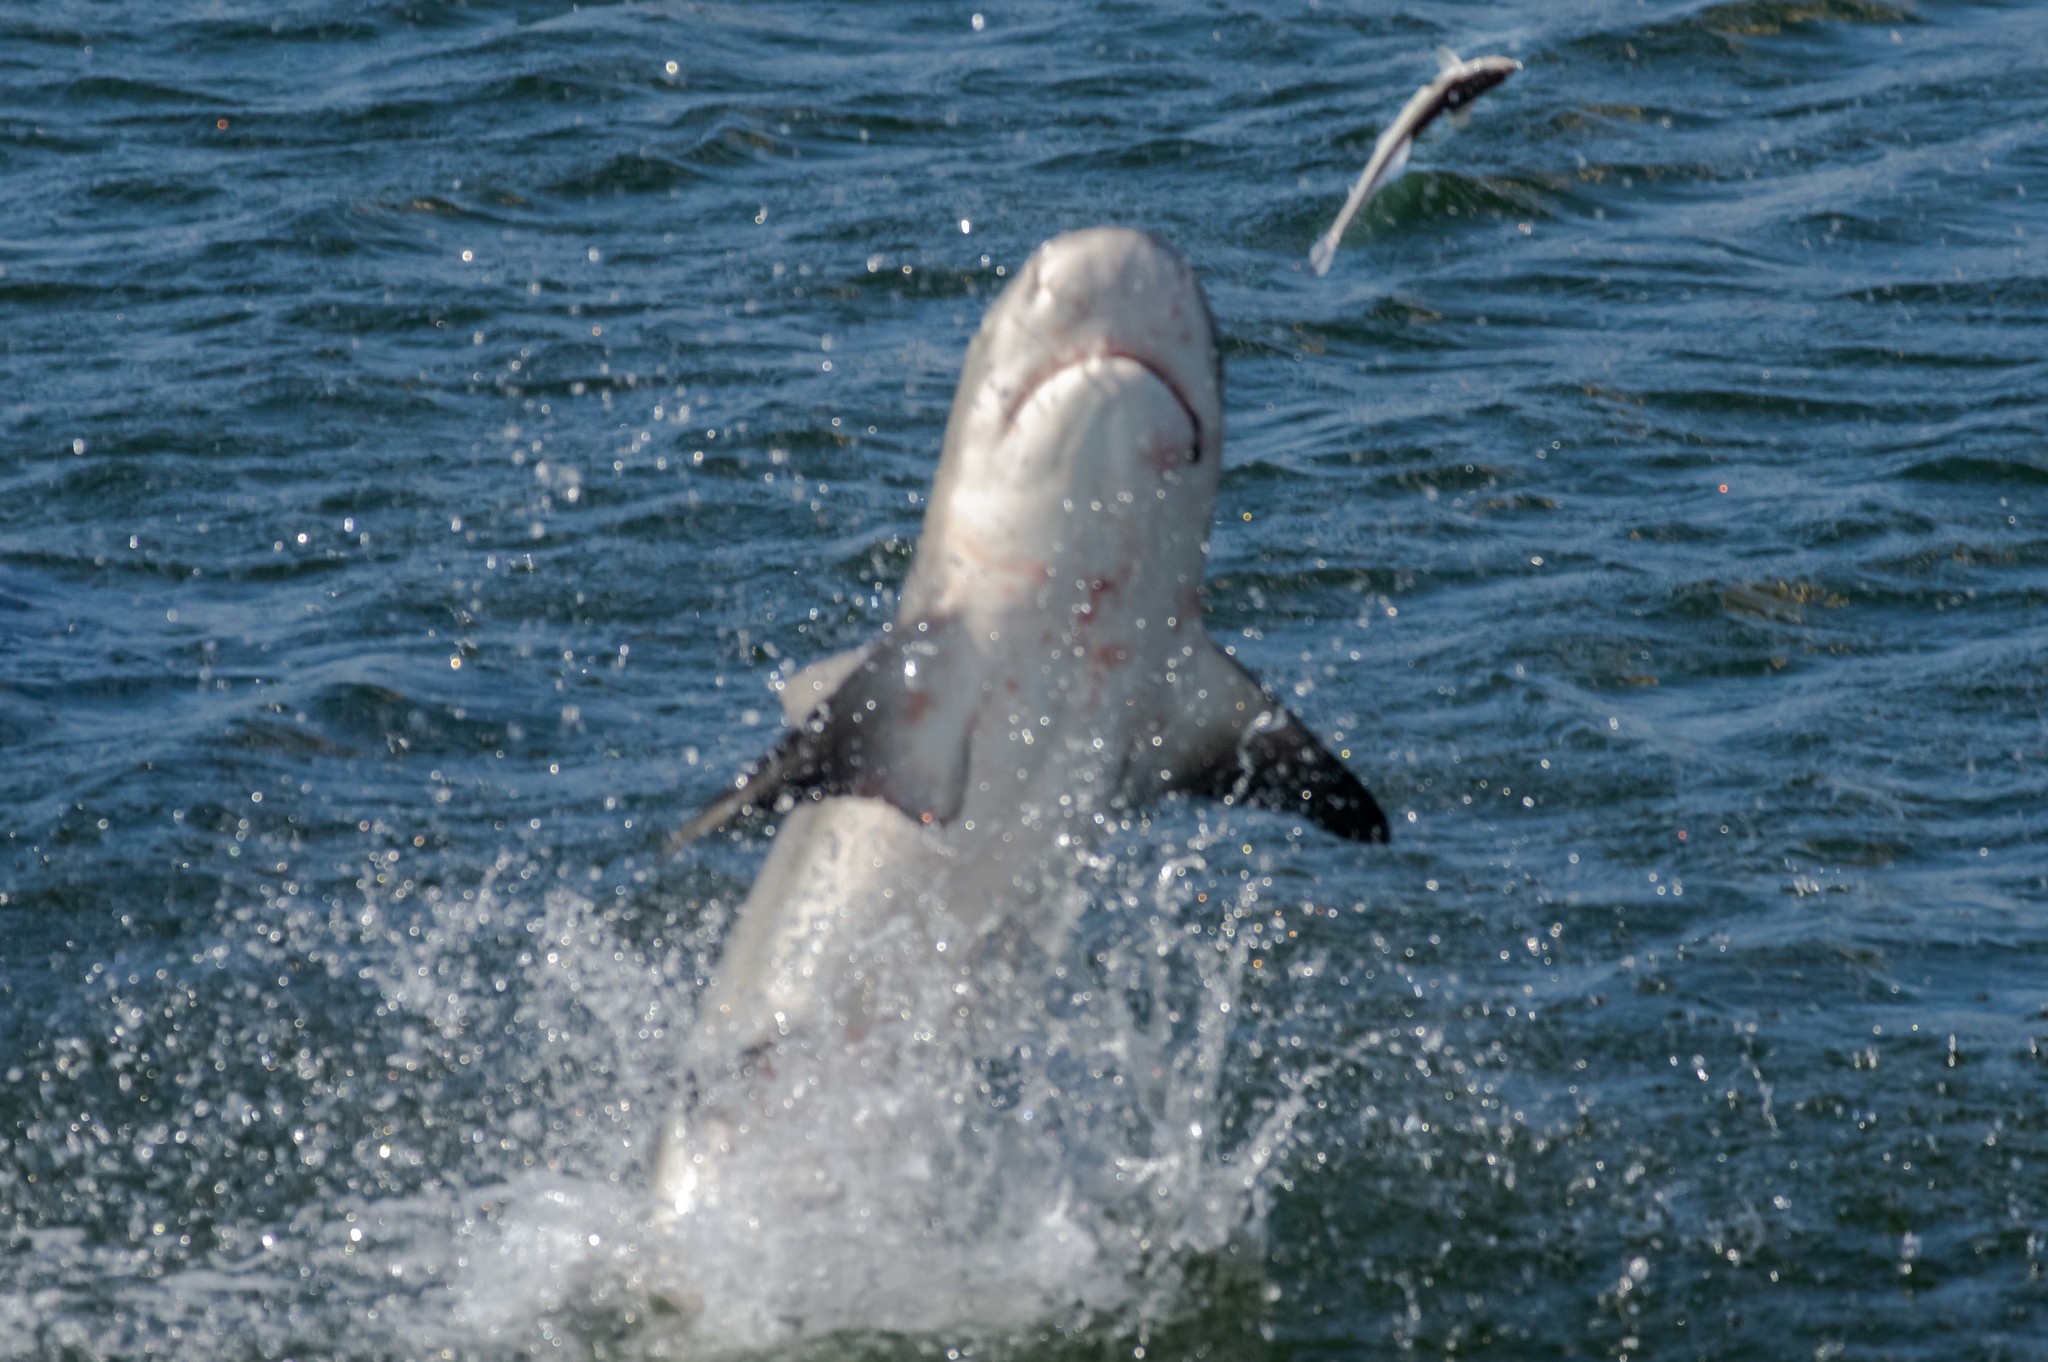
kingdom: Animalia
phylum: Chordata
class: Elasmobranchii
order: Carcharhiniformes
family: Carcharhinidae
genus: Carcharhinus
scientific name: Carcharhinus leucas
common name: Bull shark
